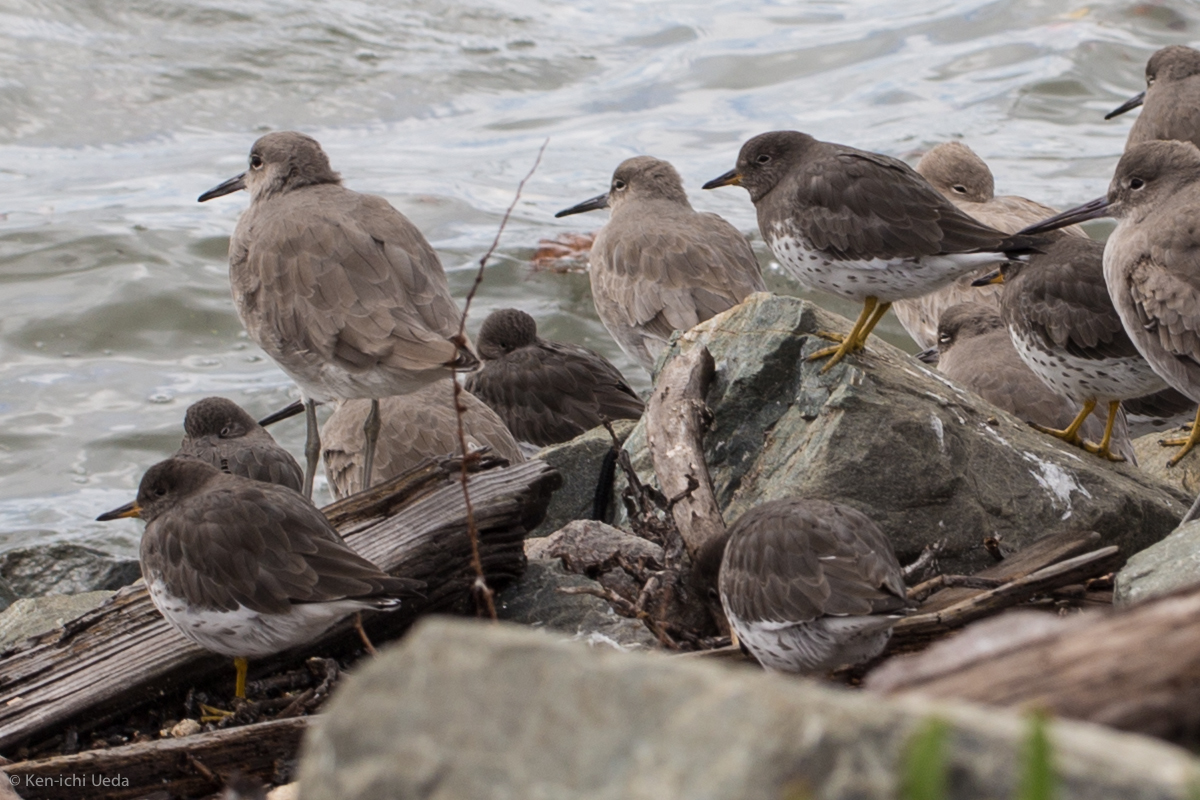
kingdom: Animalia
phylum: Chordata
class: Aves
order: Charadriiformes
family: Scolopacidae
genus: Calidris
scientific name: Calidris virgata
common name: Surfbird
